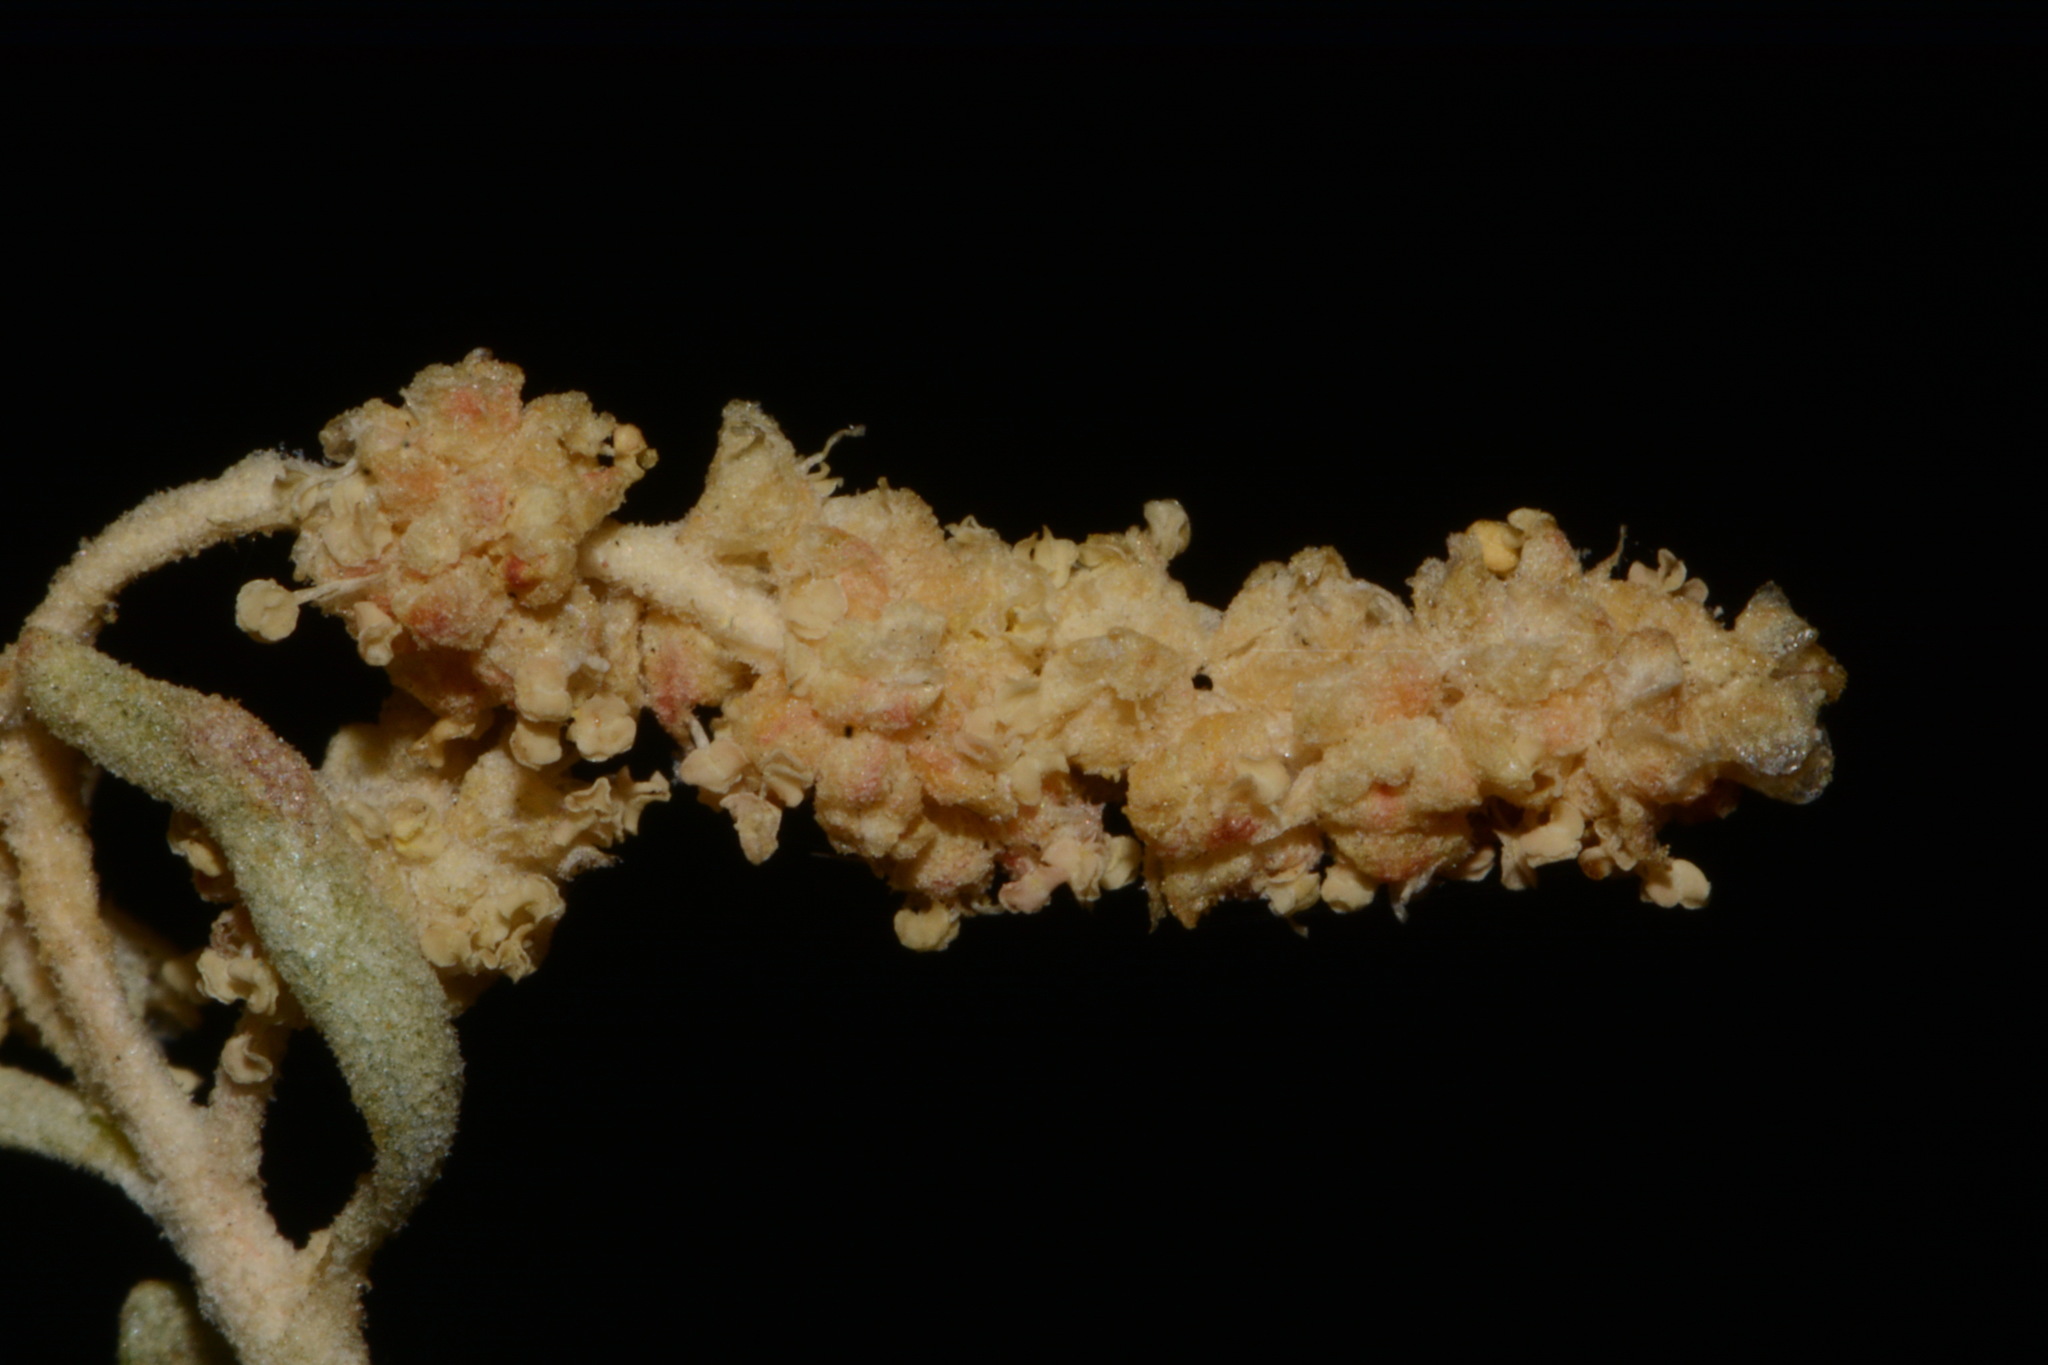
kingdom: Plantae
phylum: Tracheophyta
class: Magnoliopsida
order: Caryophyllales
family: Amaranthaceae
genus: Atriplex
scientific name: Atriplex canescens
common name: Four-wing saltbush
